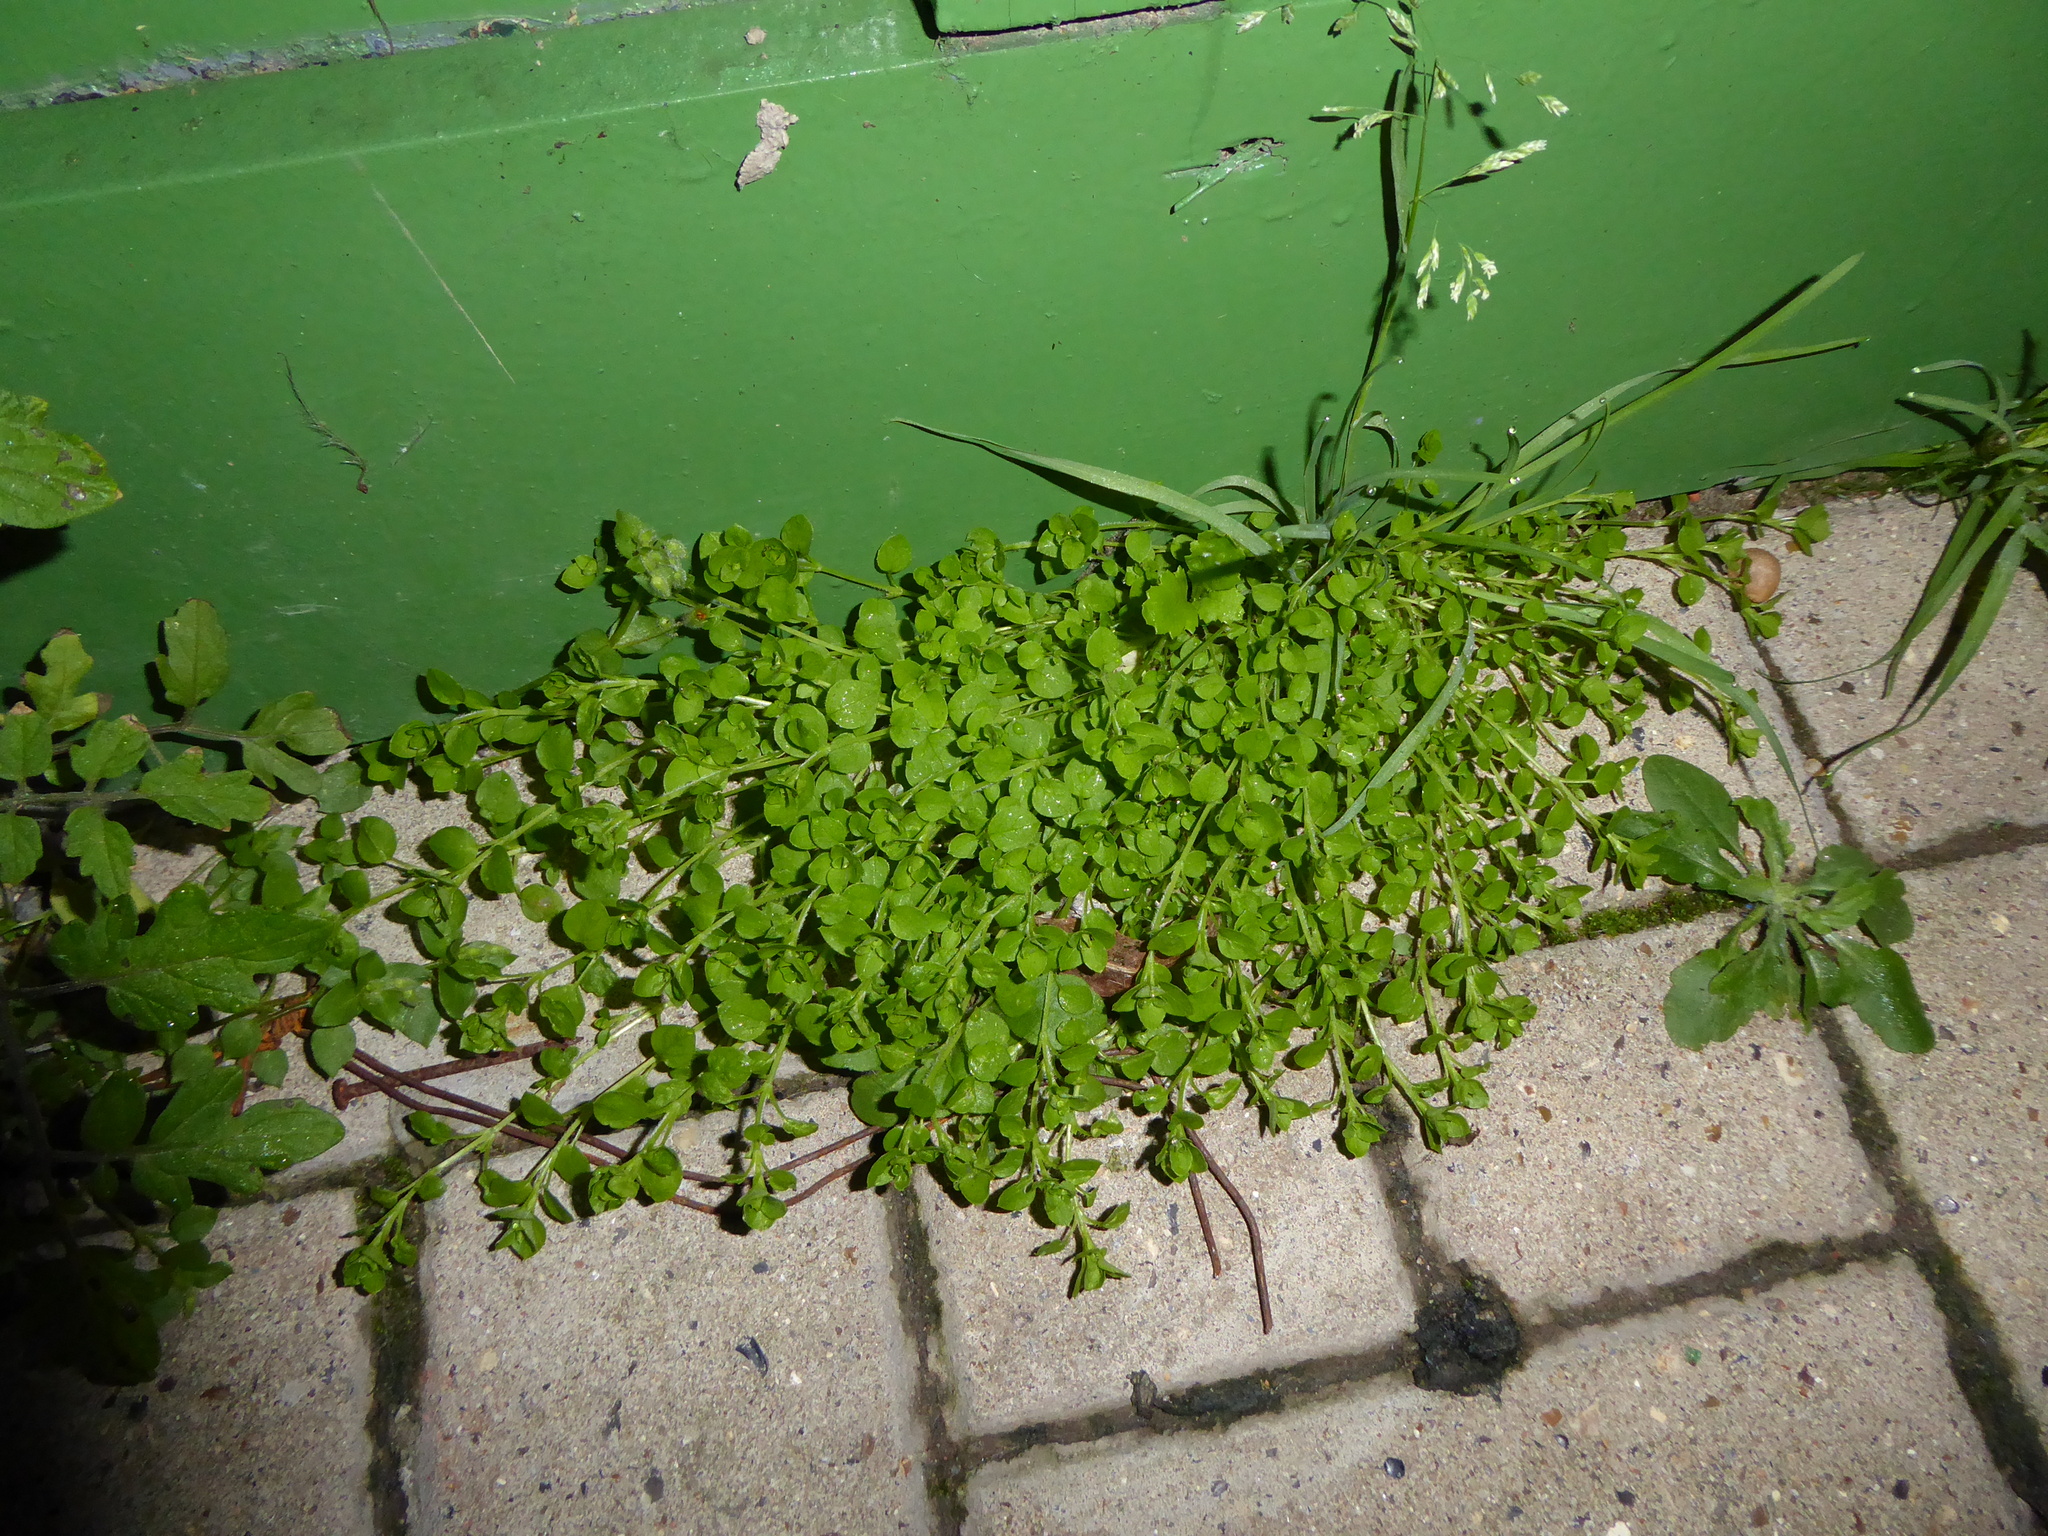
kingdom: Plantae
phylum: Tracheophyta
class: Magnoliopsida
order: Caryophyllales
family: Caryophyllaceae
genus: Stellaria
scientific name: Stellaria media
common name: Common chickweed
